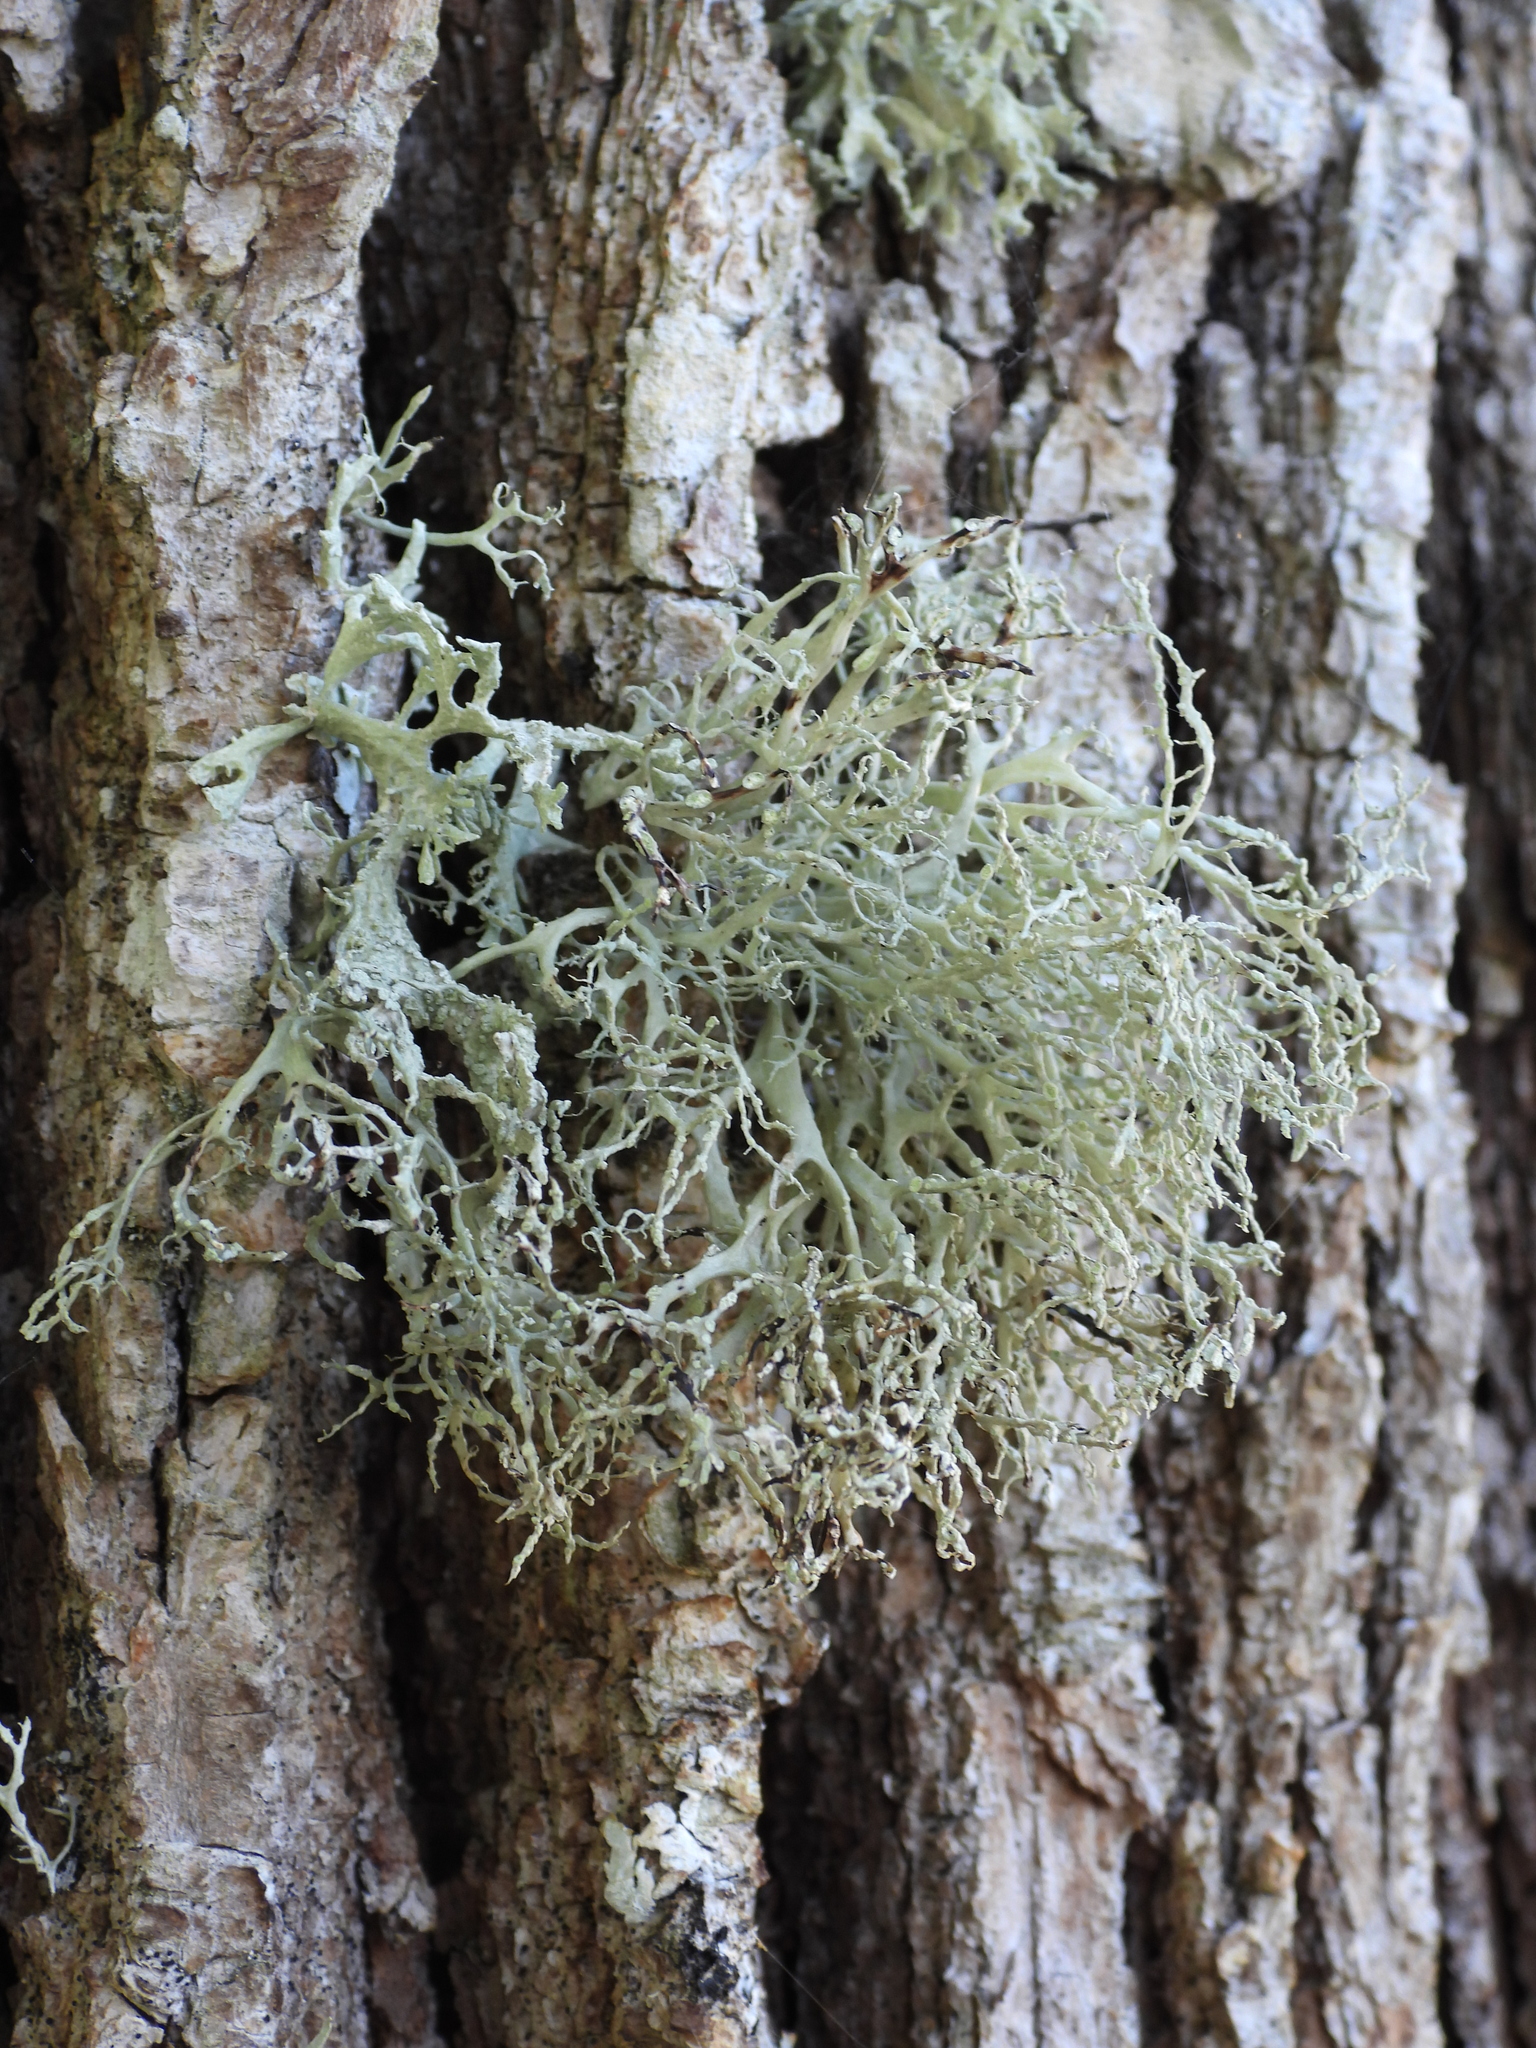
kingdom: Fungi
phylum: Ascomycota
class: Lecanoromycetes
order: Lecanorales
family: Ramalinaceae
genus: Ramalina
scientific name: Ramalina farinacea
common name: Farinose cartilage lichen
